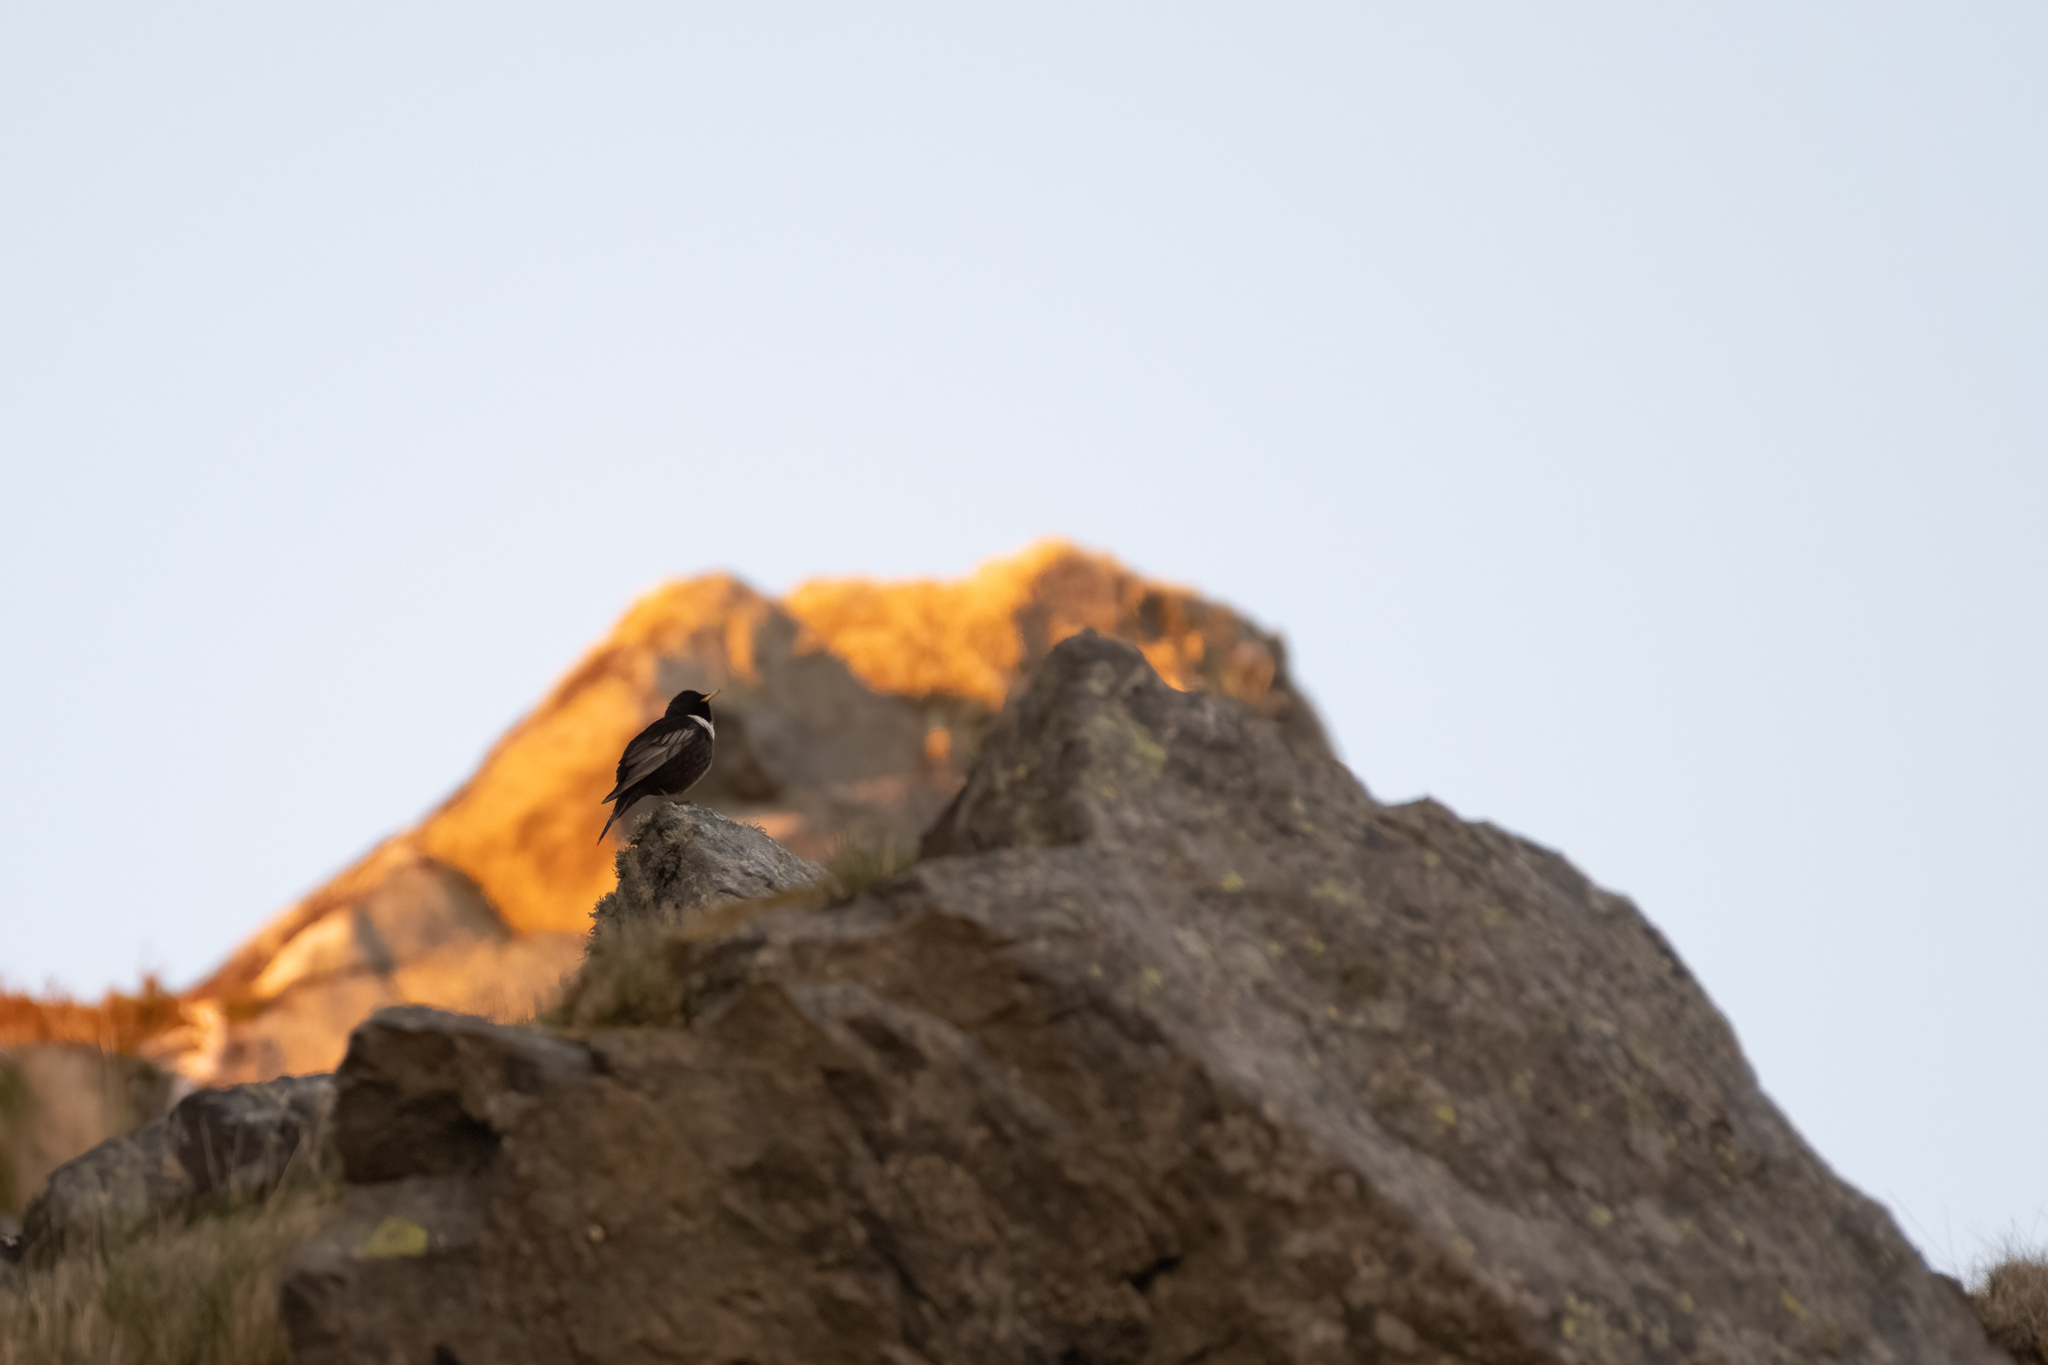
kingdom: Animalia
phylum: Chordata
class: Aves
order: Passeriformes
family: Turdidae
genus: Turdus
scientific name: Turdus torquatus
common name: Ring ouzel
